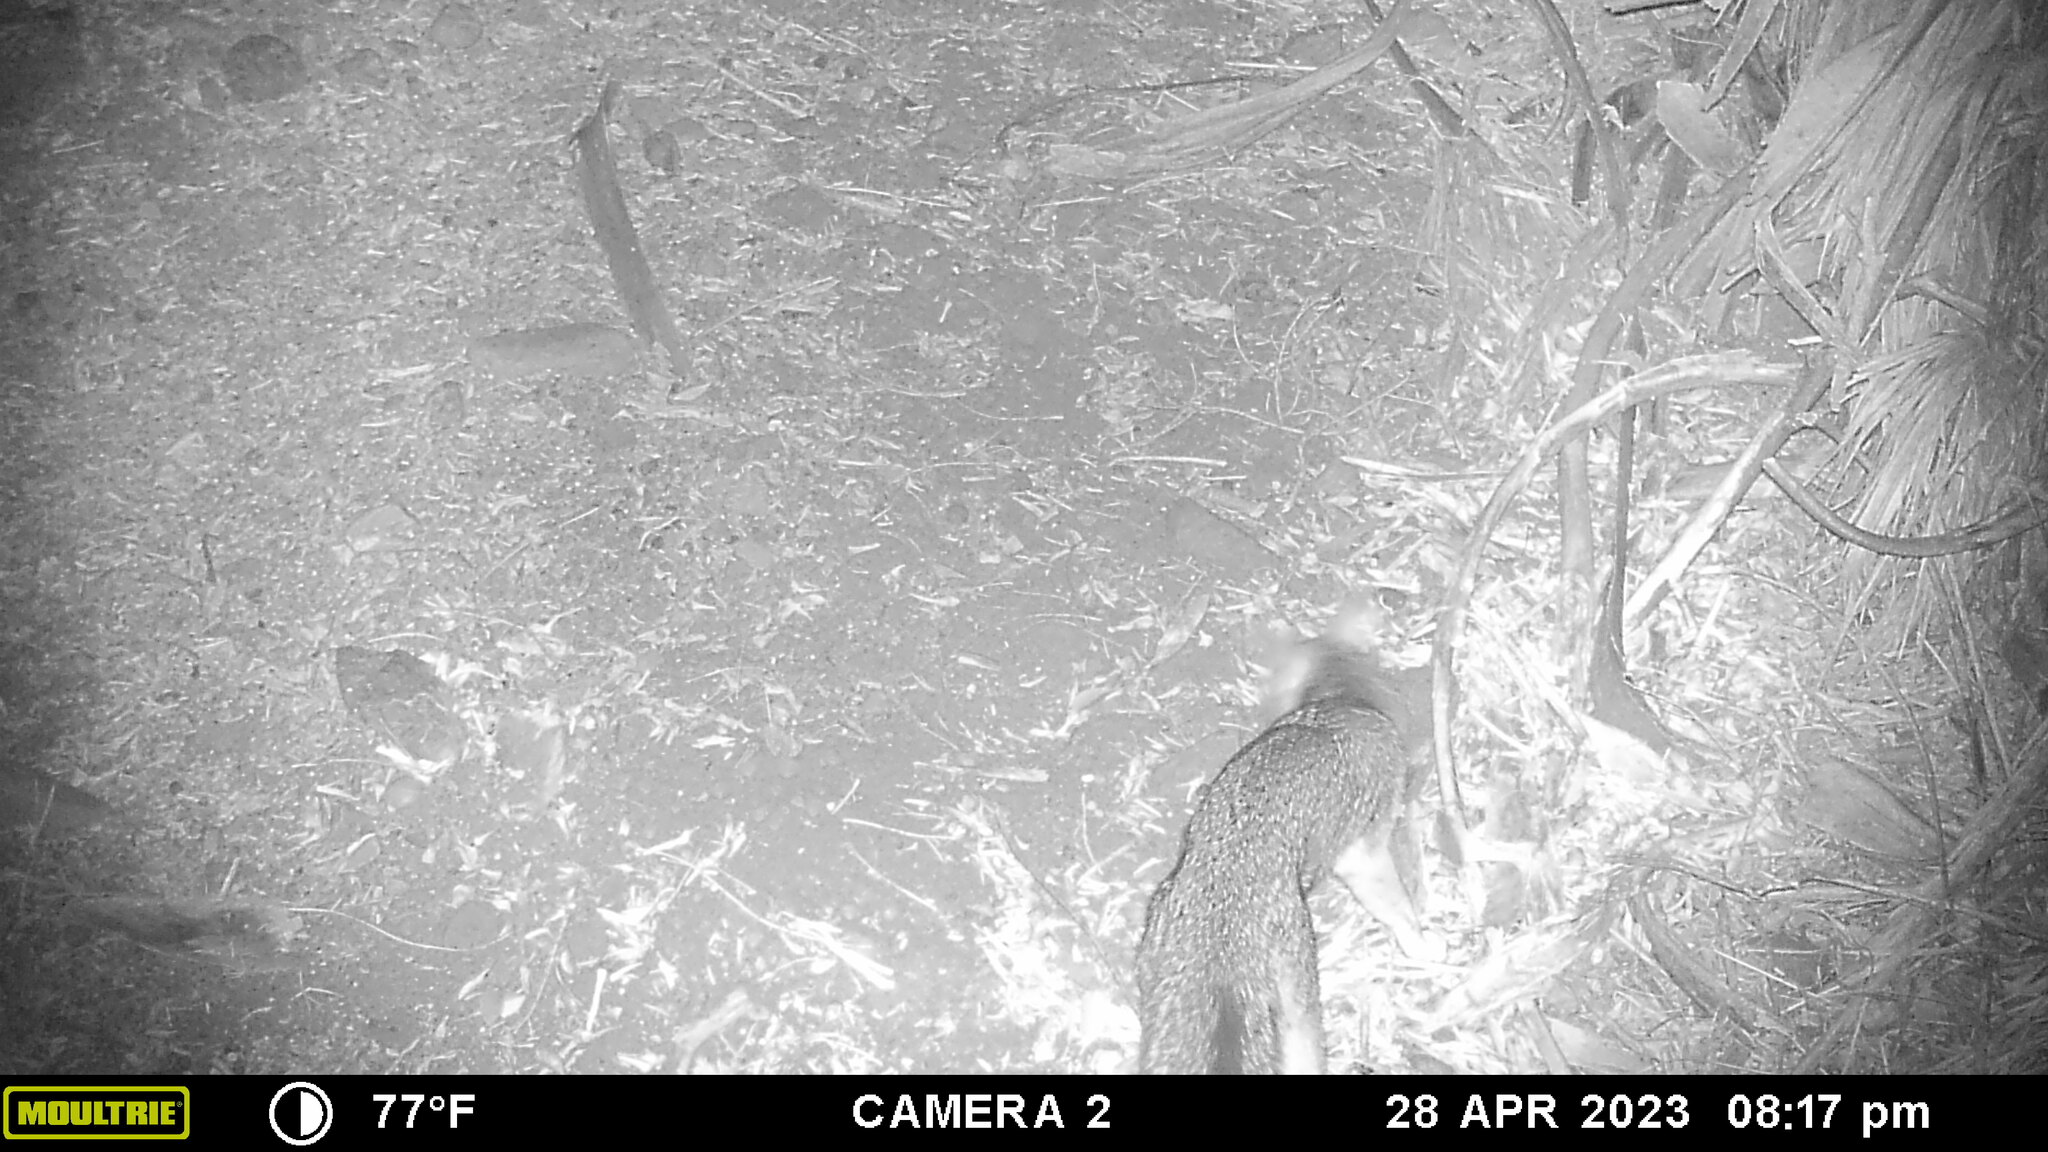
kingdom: Animalia
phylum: Chordata
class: Mammalia
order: Carnivora
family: Canidae
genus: Urocyon
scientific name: Urocyon cinereoargenteus
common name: Gray fox
